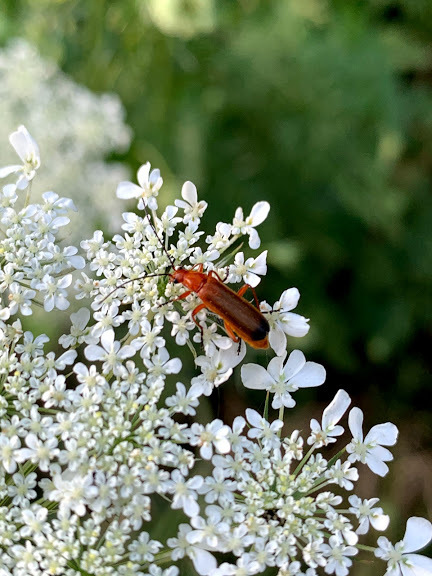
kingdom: Animalia
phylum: Arthropoda
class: Insecta
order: Coleoptera
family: Cantharidae
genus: Rhagonycha
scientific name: Rhagonycha fulva
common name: Common red soldier beetle
